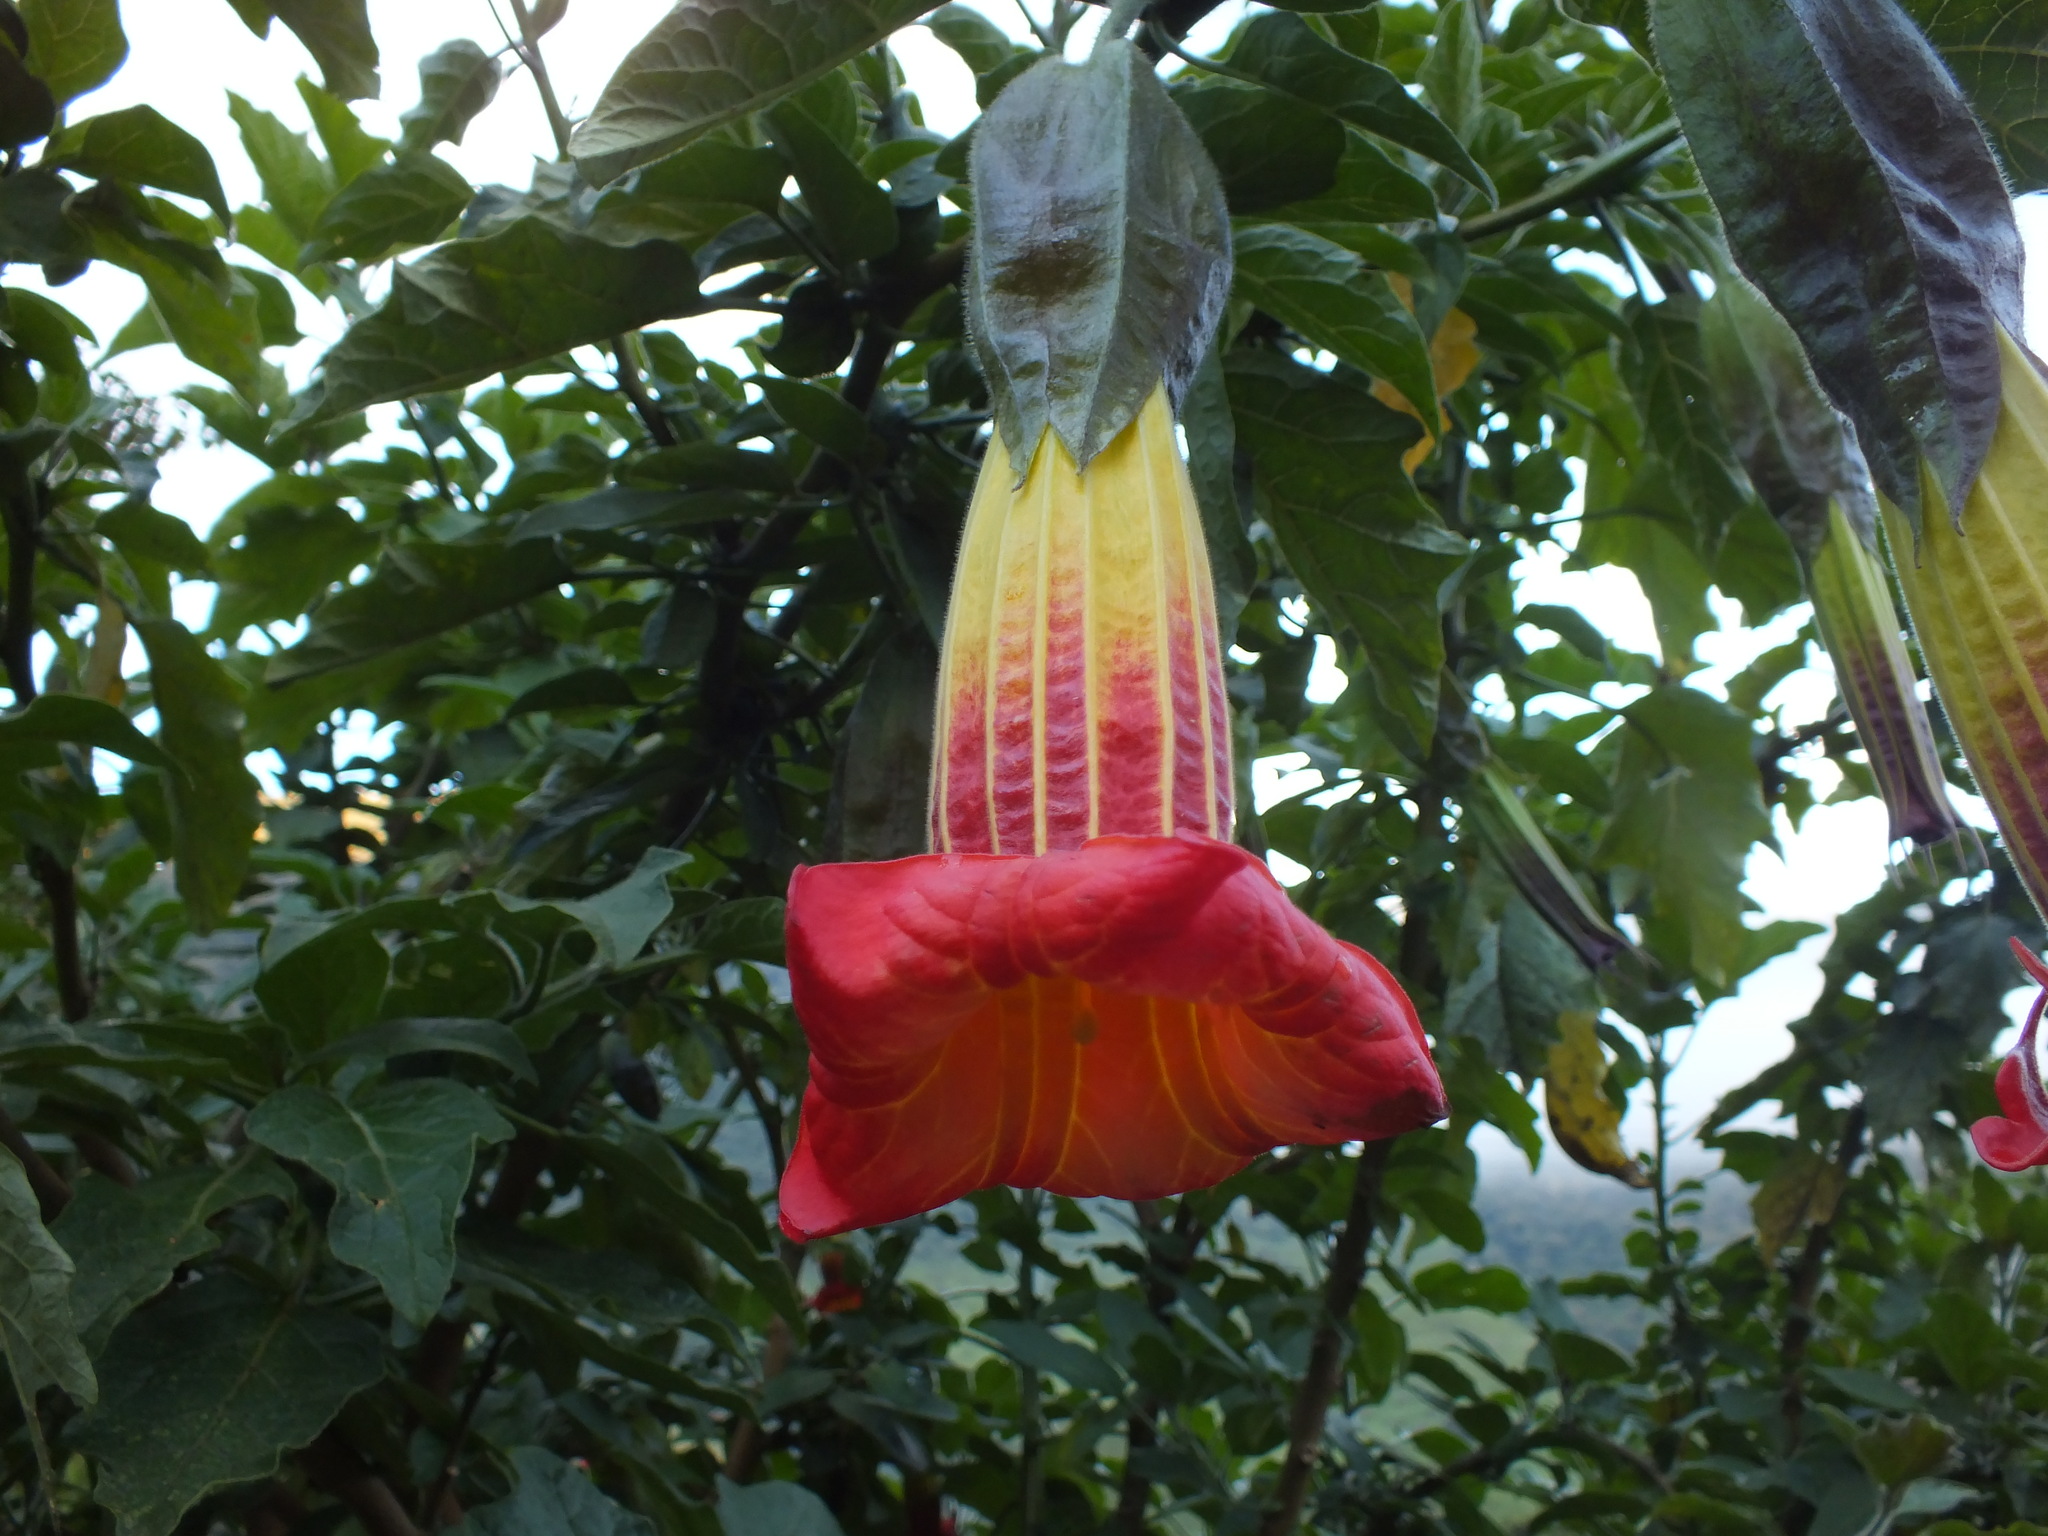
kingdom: Plantae
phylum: Tracheophyta
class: Magnoliopsida
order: Solanales
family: Solanaceae
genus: Brugmansia
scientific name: Brugmansia sanguinea
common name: Red floripontio
